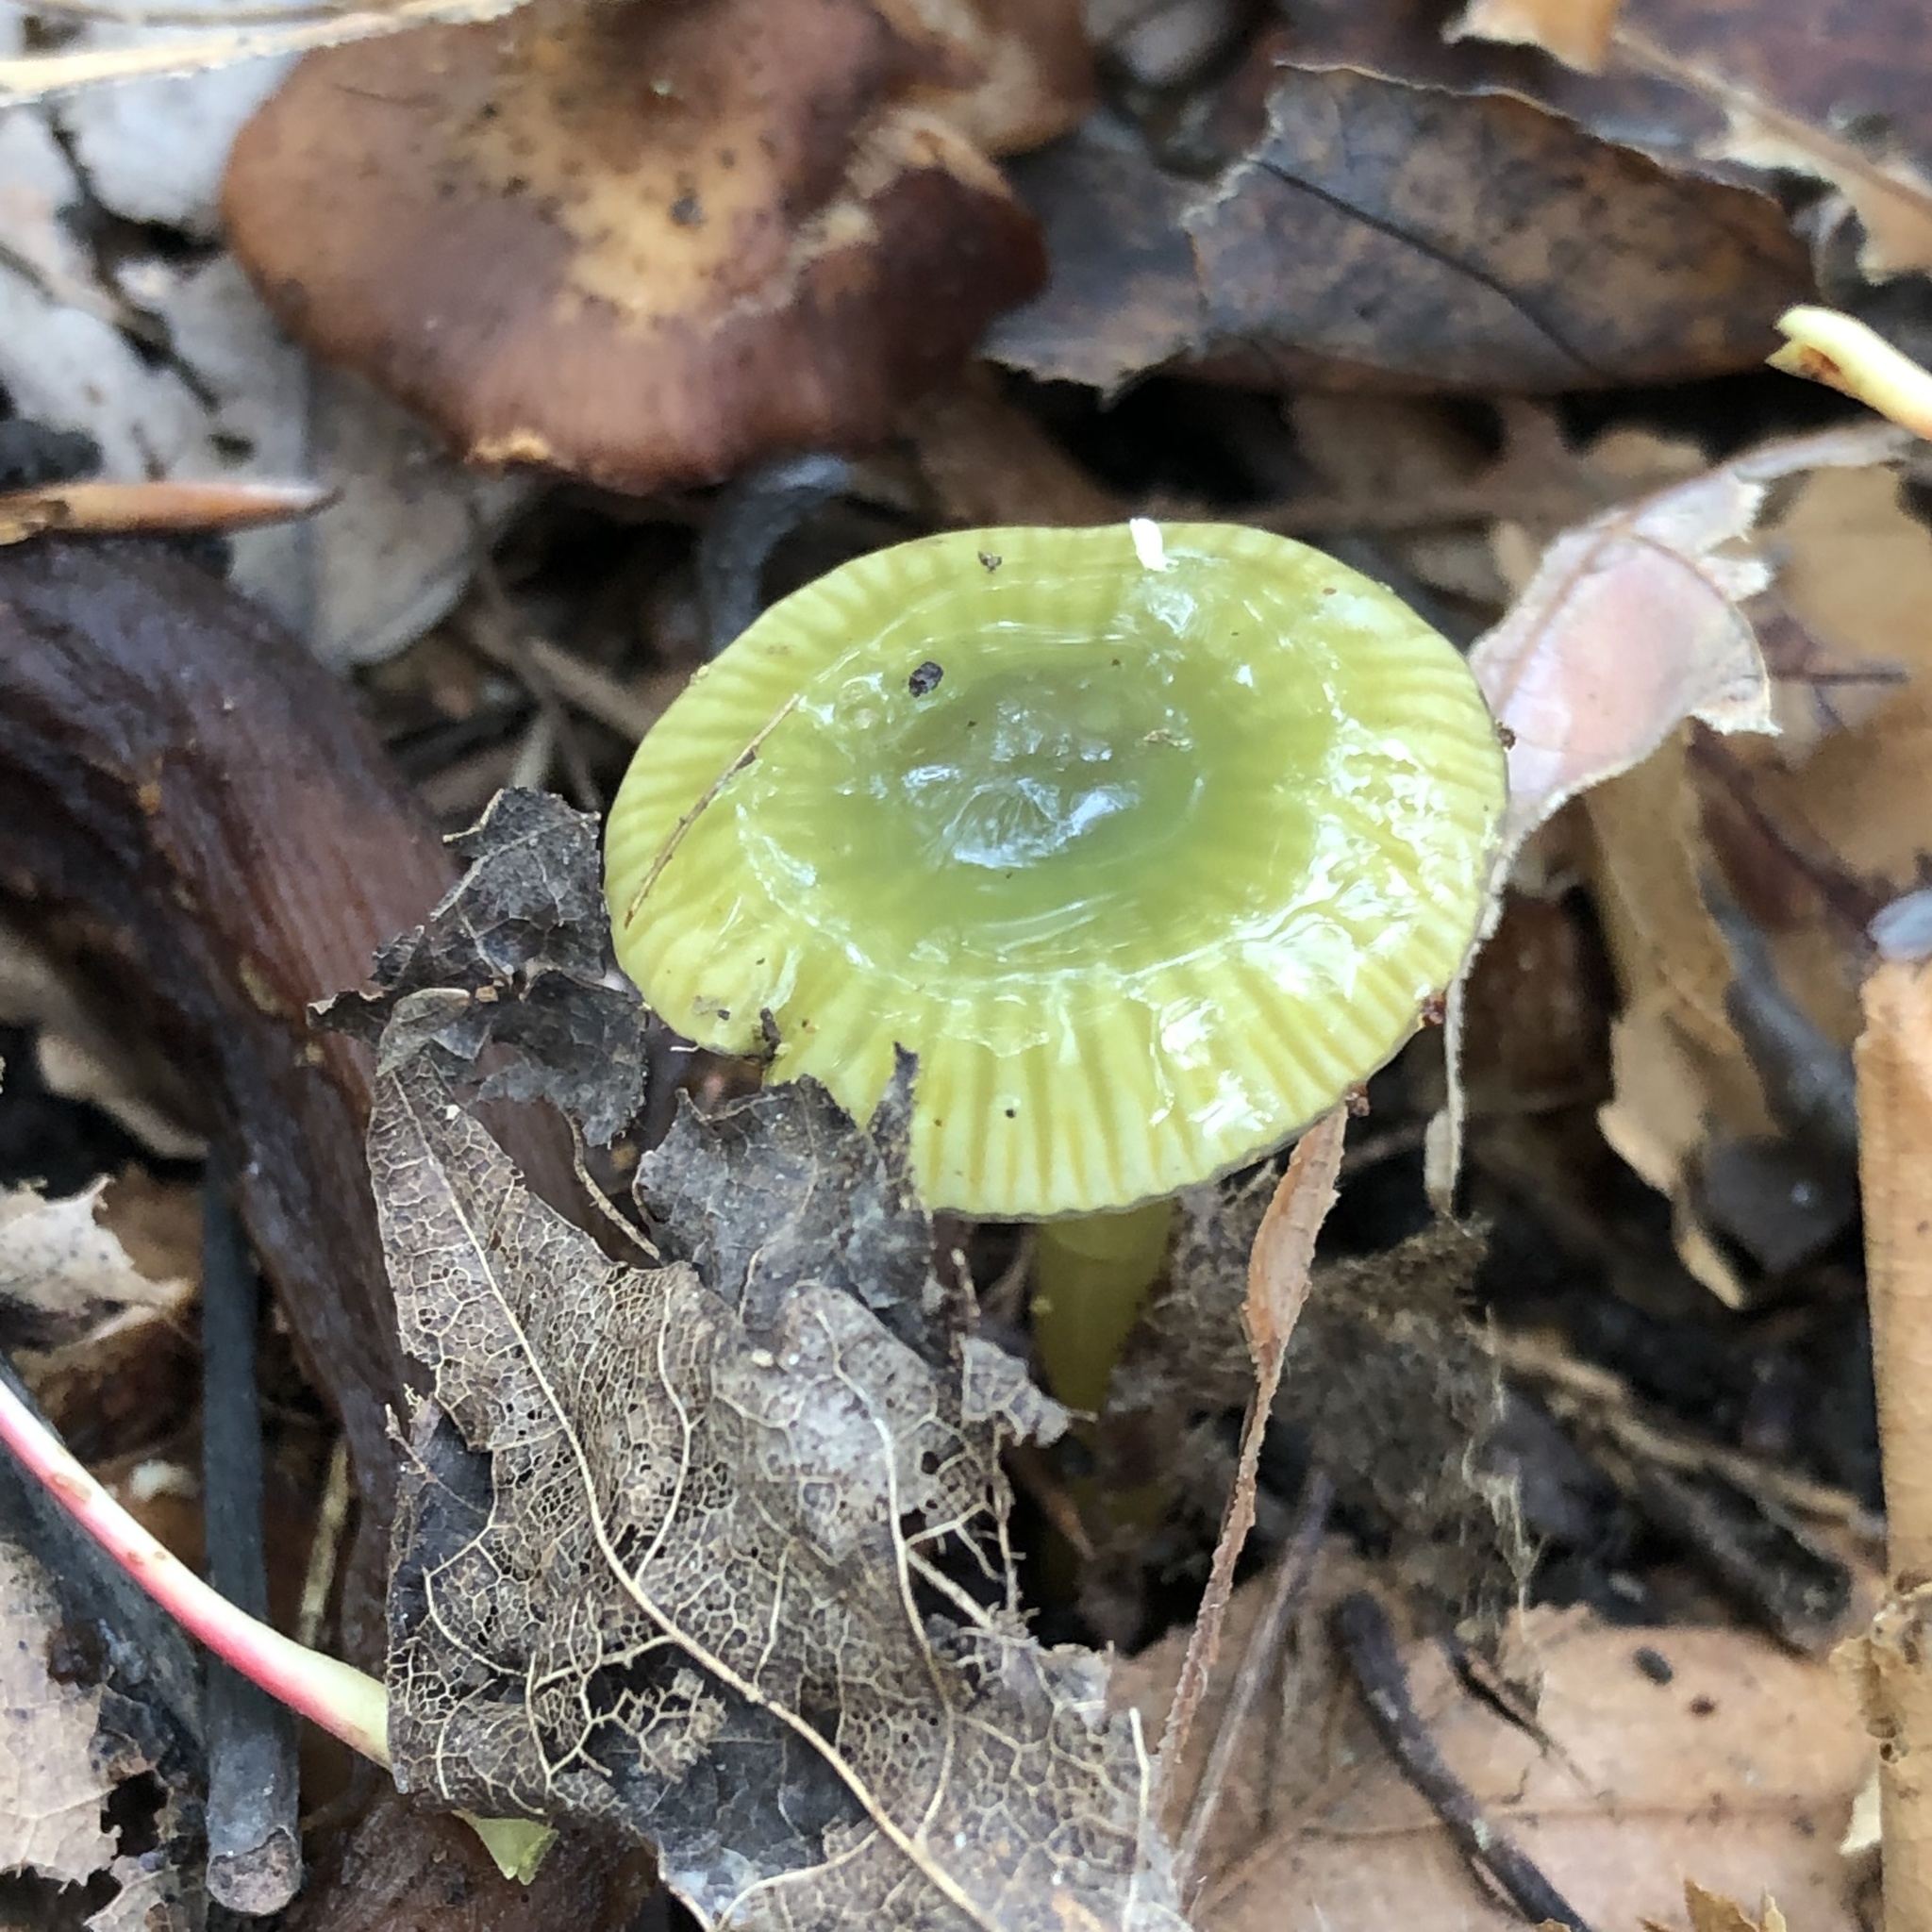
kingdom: Fungi
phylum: Basidiomycota
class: Agaricomycetes
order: Agaricales
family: Hygrophoraceae
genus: Gliophorus
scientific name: Gliophorus psittacinus
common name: Parrot wax-cap
